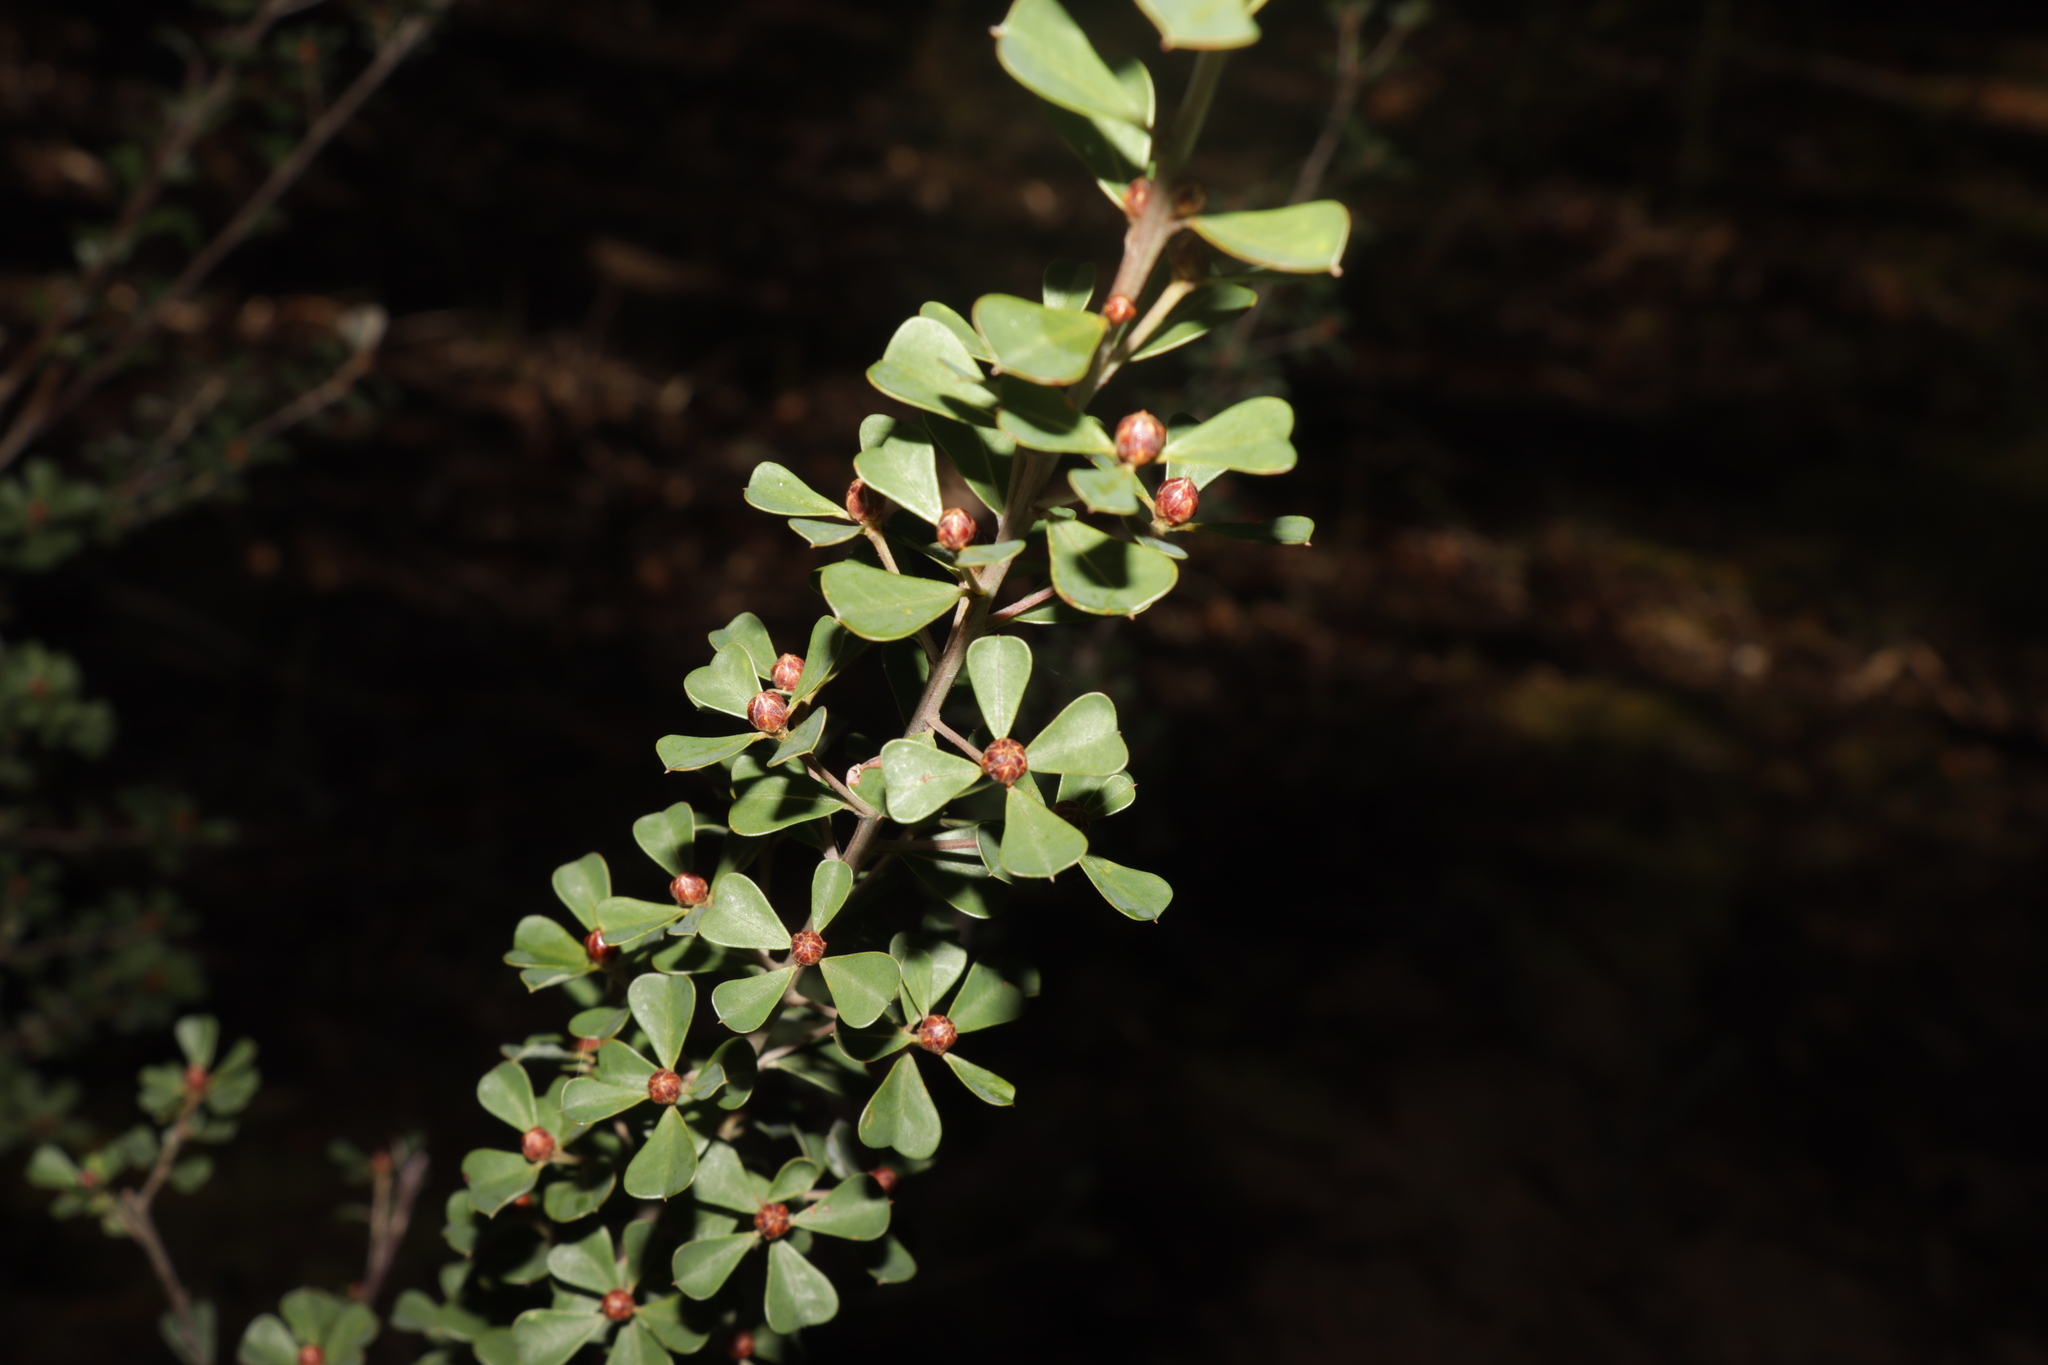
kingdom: Plantae
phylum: Tracheophyta
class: Magnoliopsida
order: Fabales
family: Fabaceae
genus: Pultenaea
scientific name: Pultenaea daphnoides
